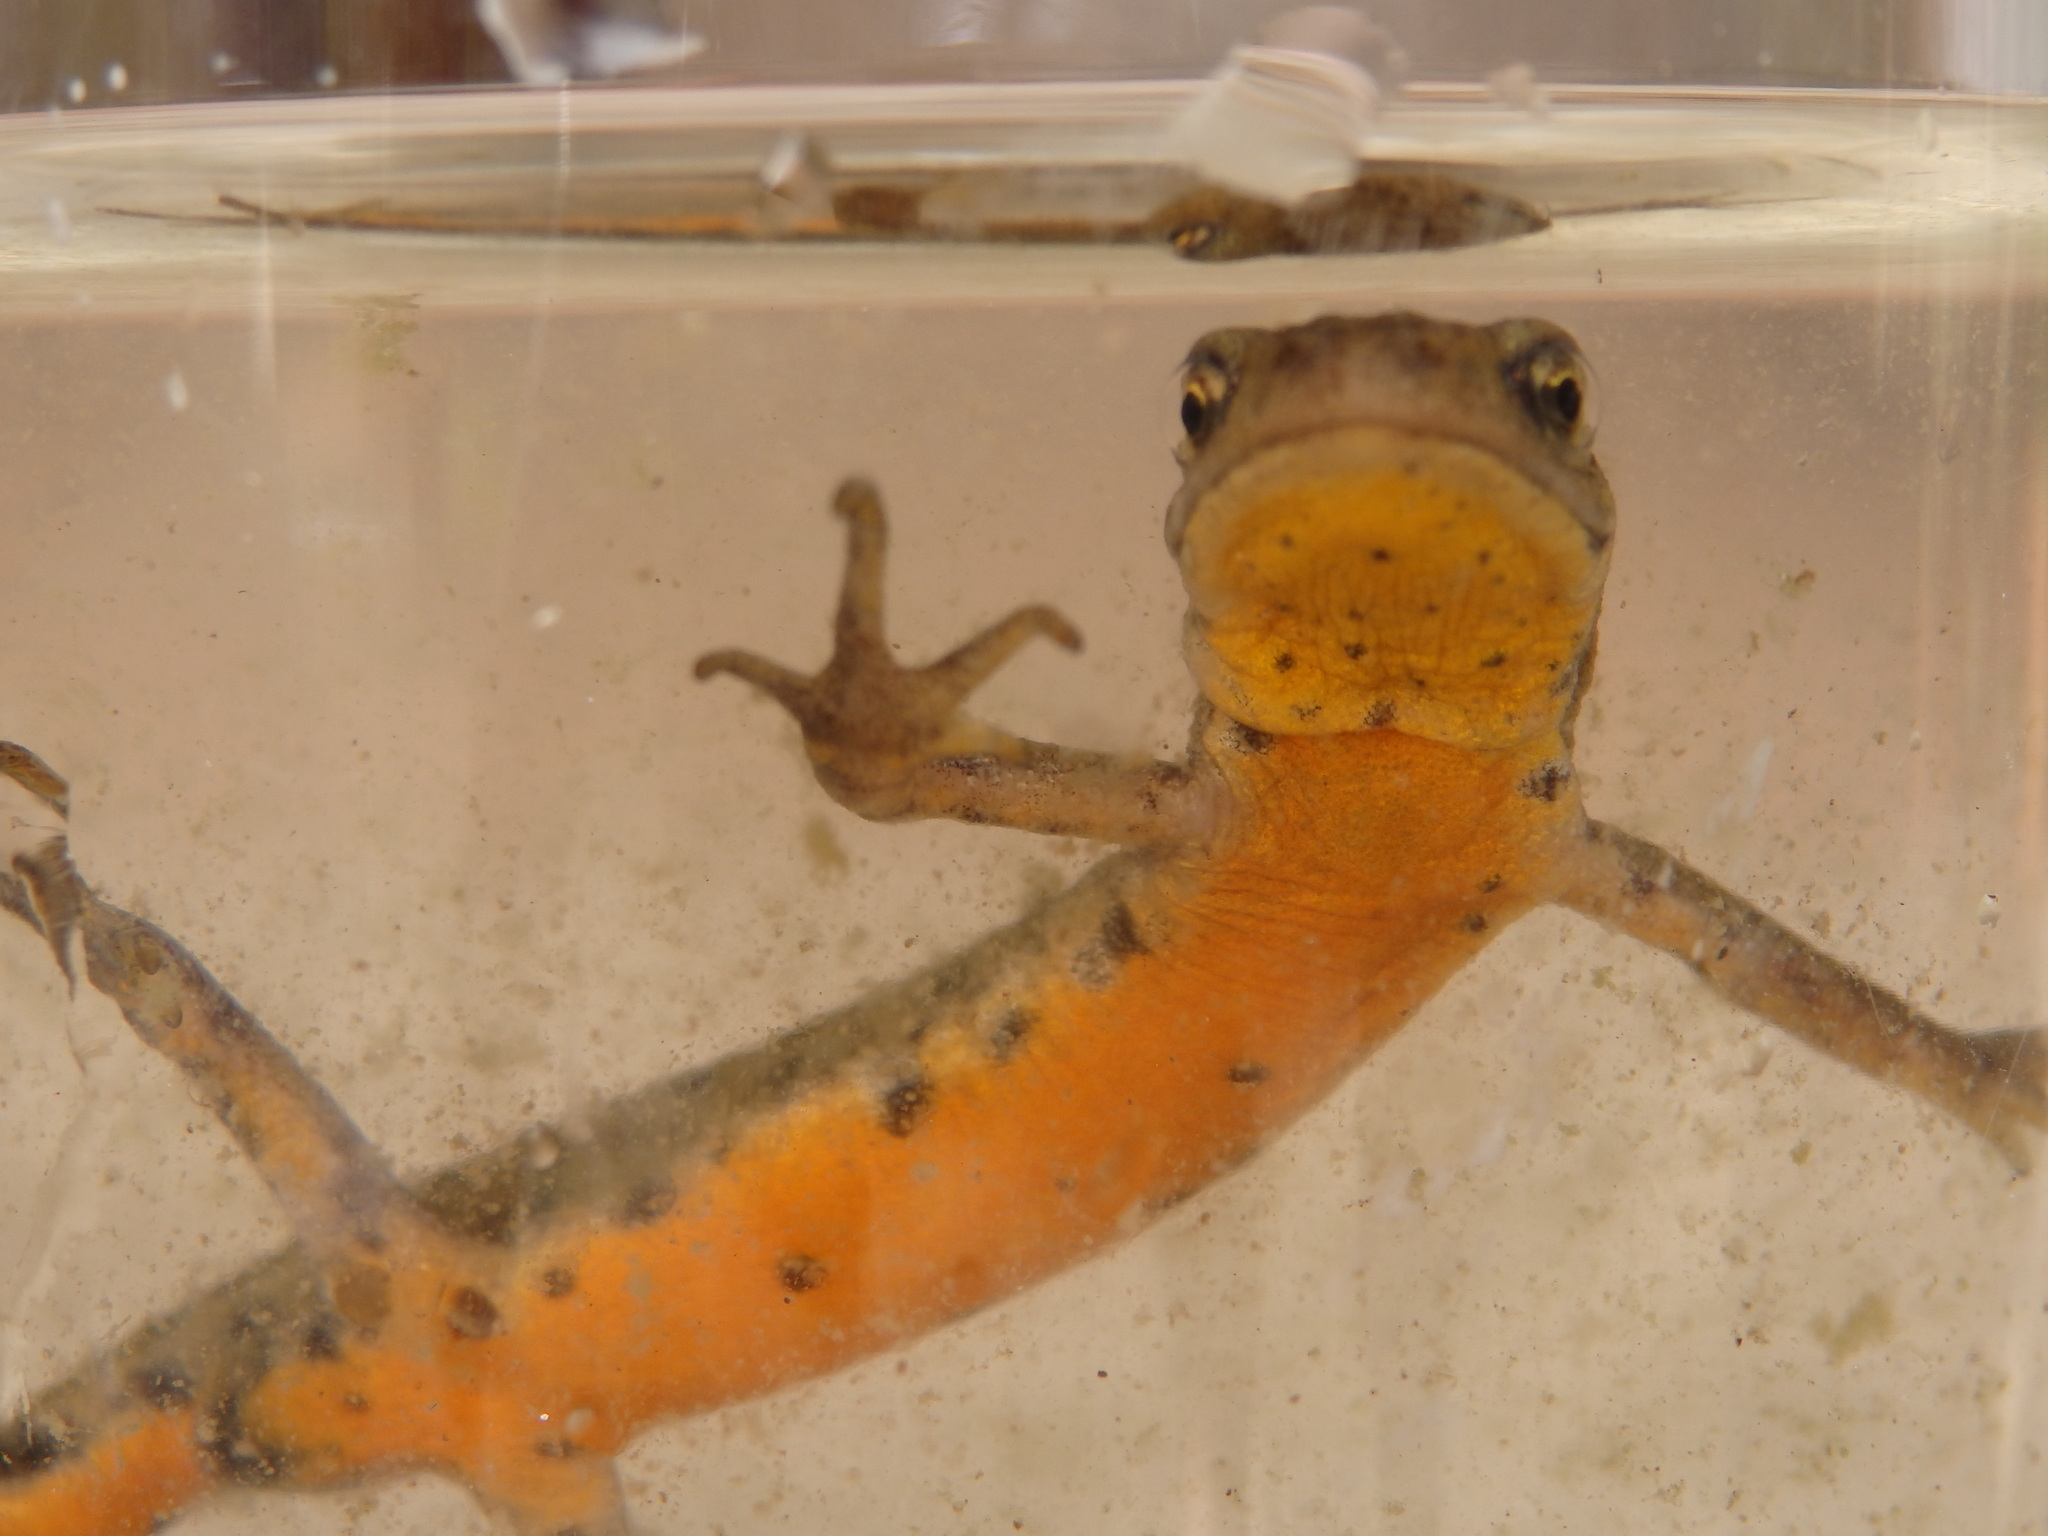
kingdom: Animalia
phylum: Chordata
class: Amphibia
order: Caudata
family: Salamandridae
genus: Lissotriton
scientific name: Lissotriton boscai
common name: Bosca's newt
